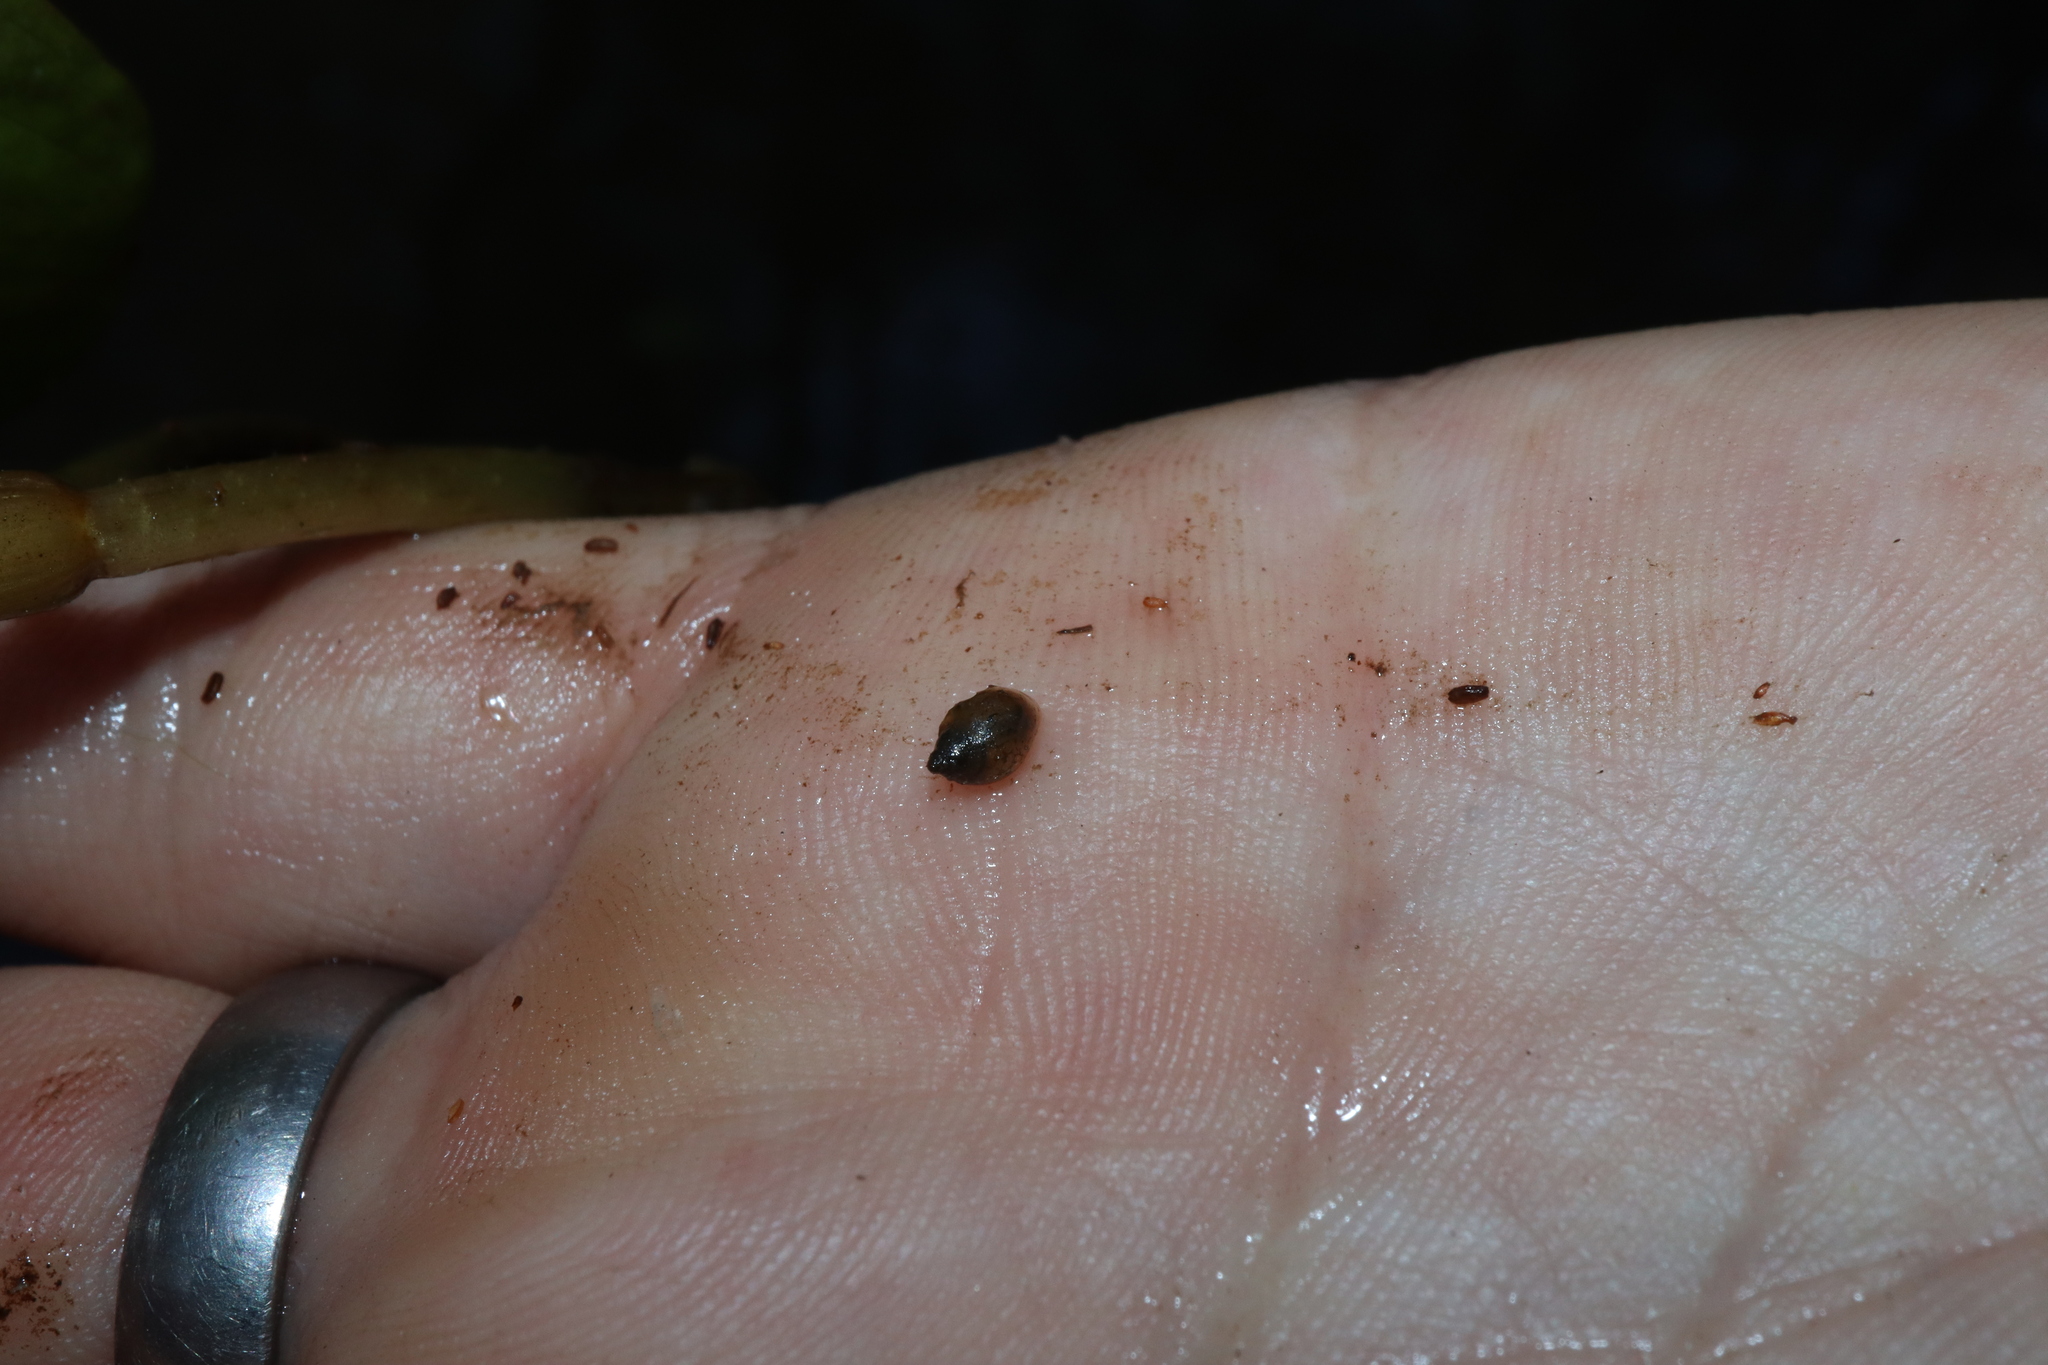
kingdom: Animalia
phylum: Mollusca
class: Gastropoda
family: Physidae
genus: Physella
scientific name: Physella acuta
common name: European physa
